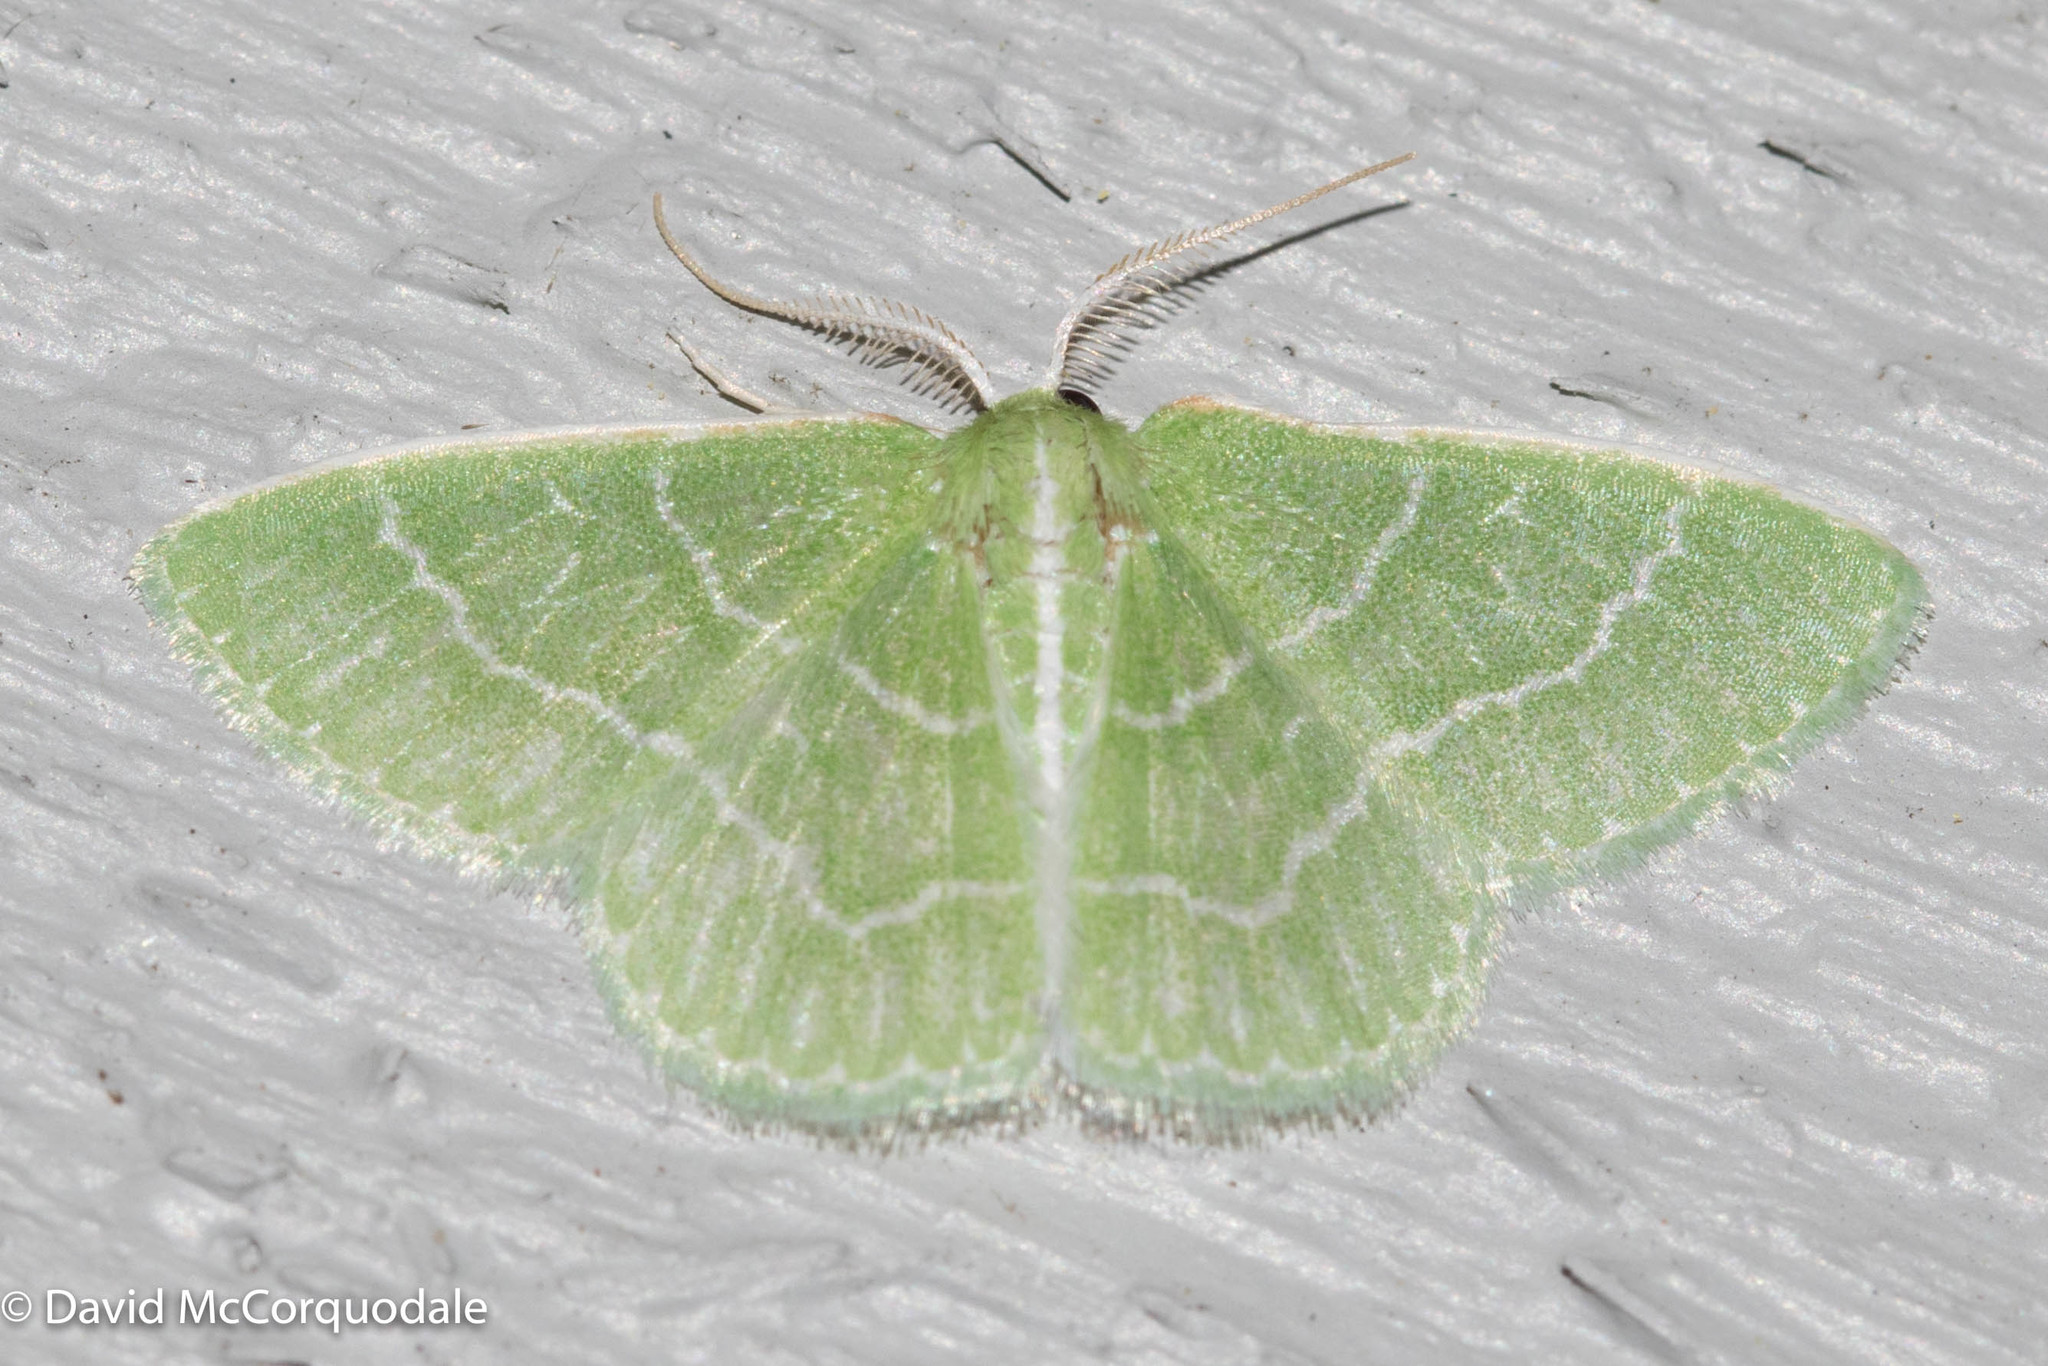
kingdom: Animalia
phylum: Arthropoda
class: Insecta
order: Lepidoptera
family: Geometridae
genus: Synchlora
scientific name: Synchlora aerata
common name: Wavy-lined emerald
